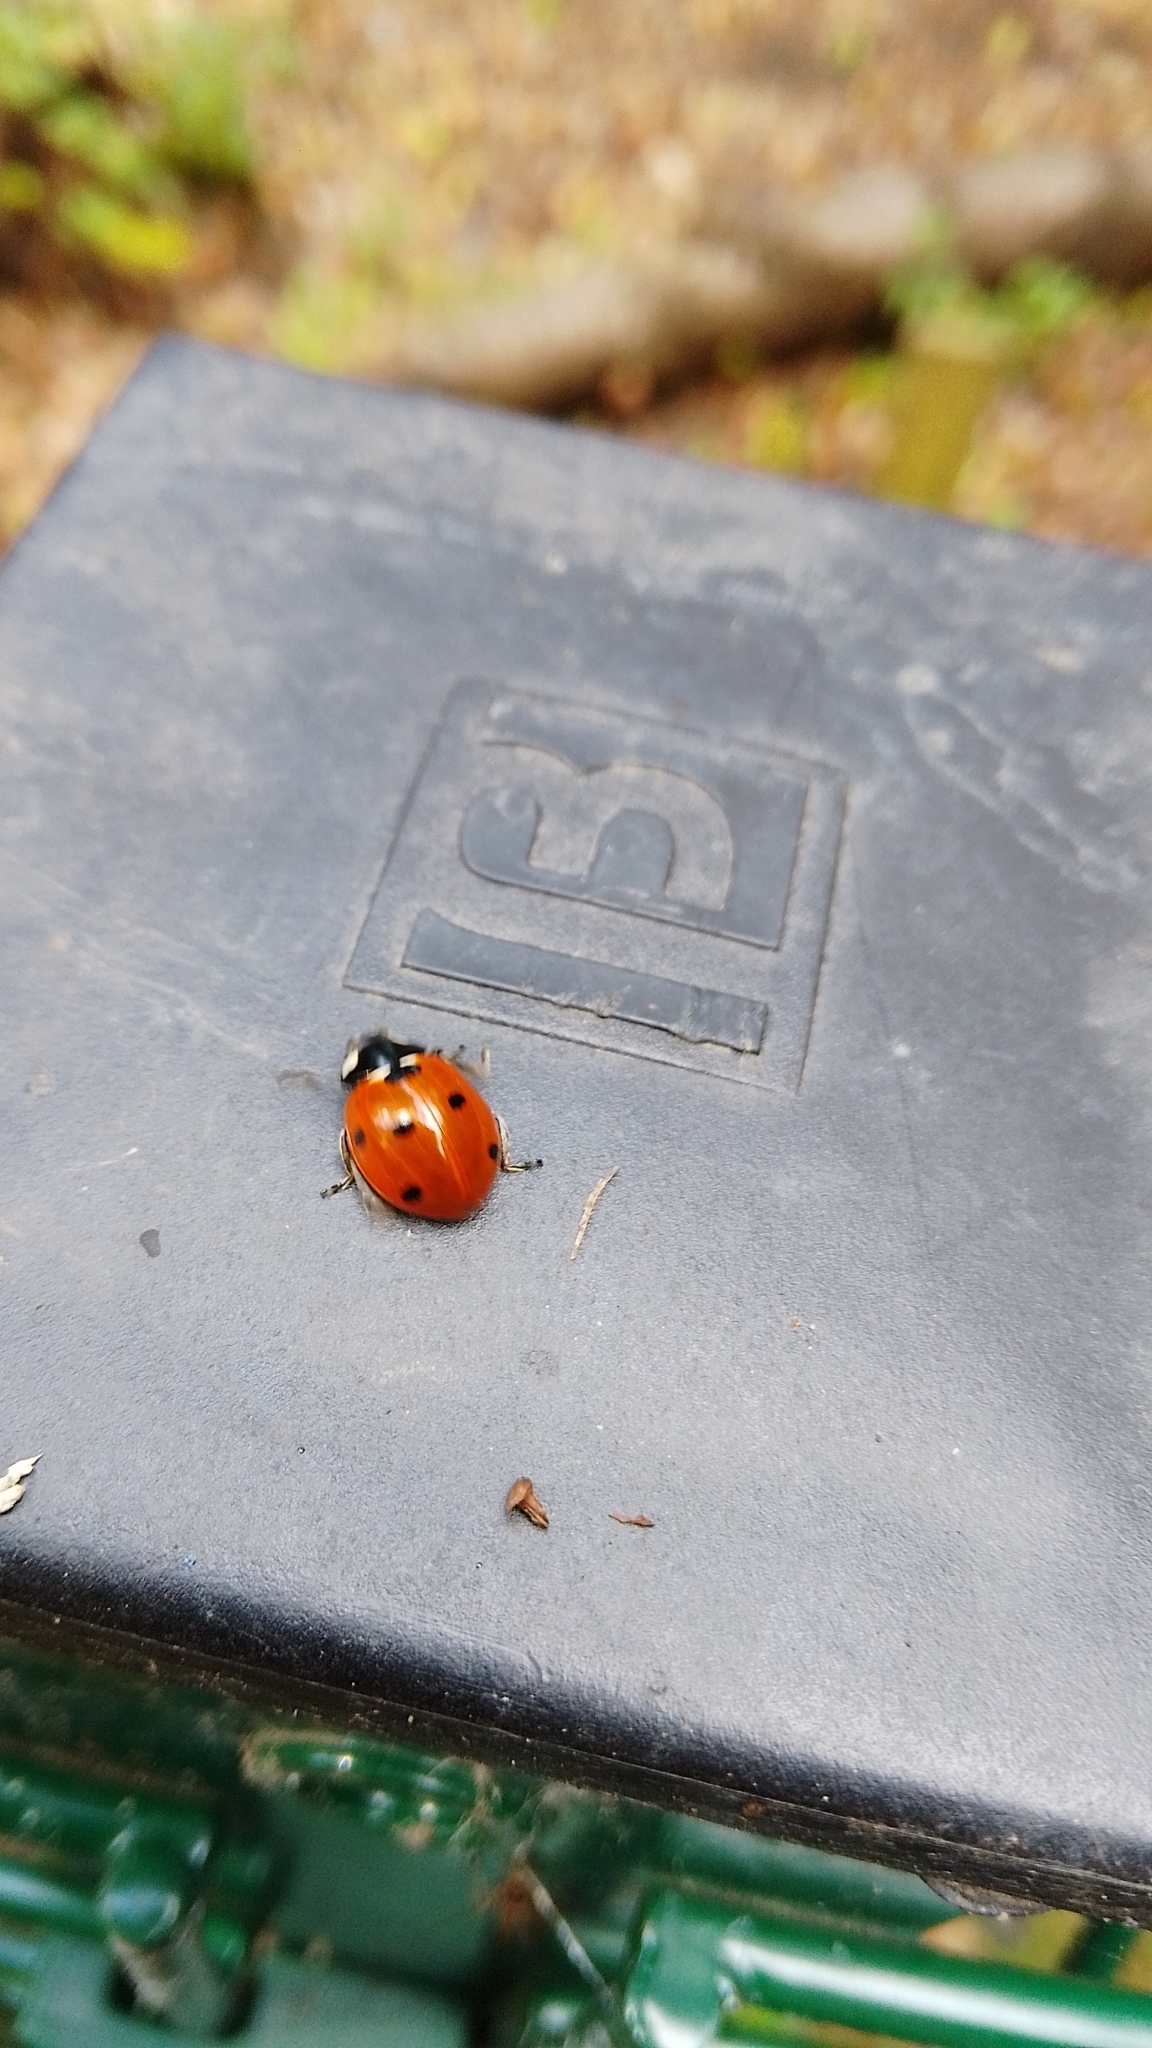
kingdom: Animalia
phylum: Arthropoda
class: Insecta
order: Coleoptera
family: Coccinellidae
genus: Coccinella
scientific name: Coccinella septempunctata
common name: Sevenspotted lady beetle
